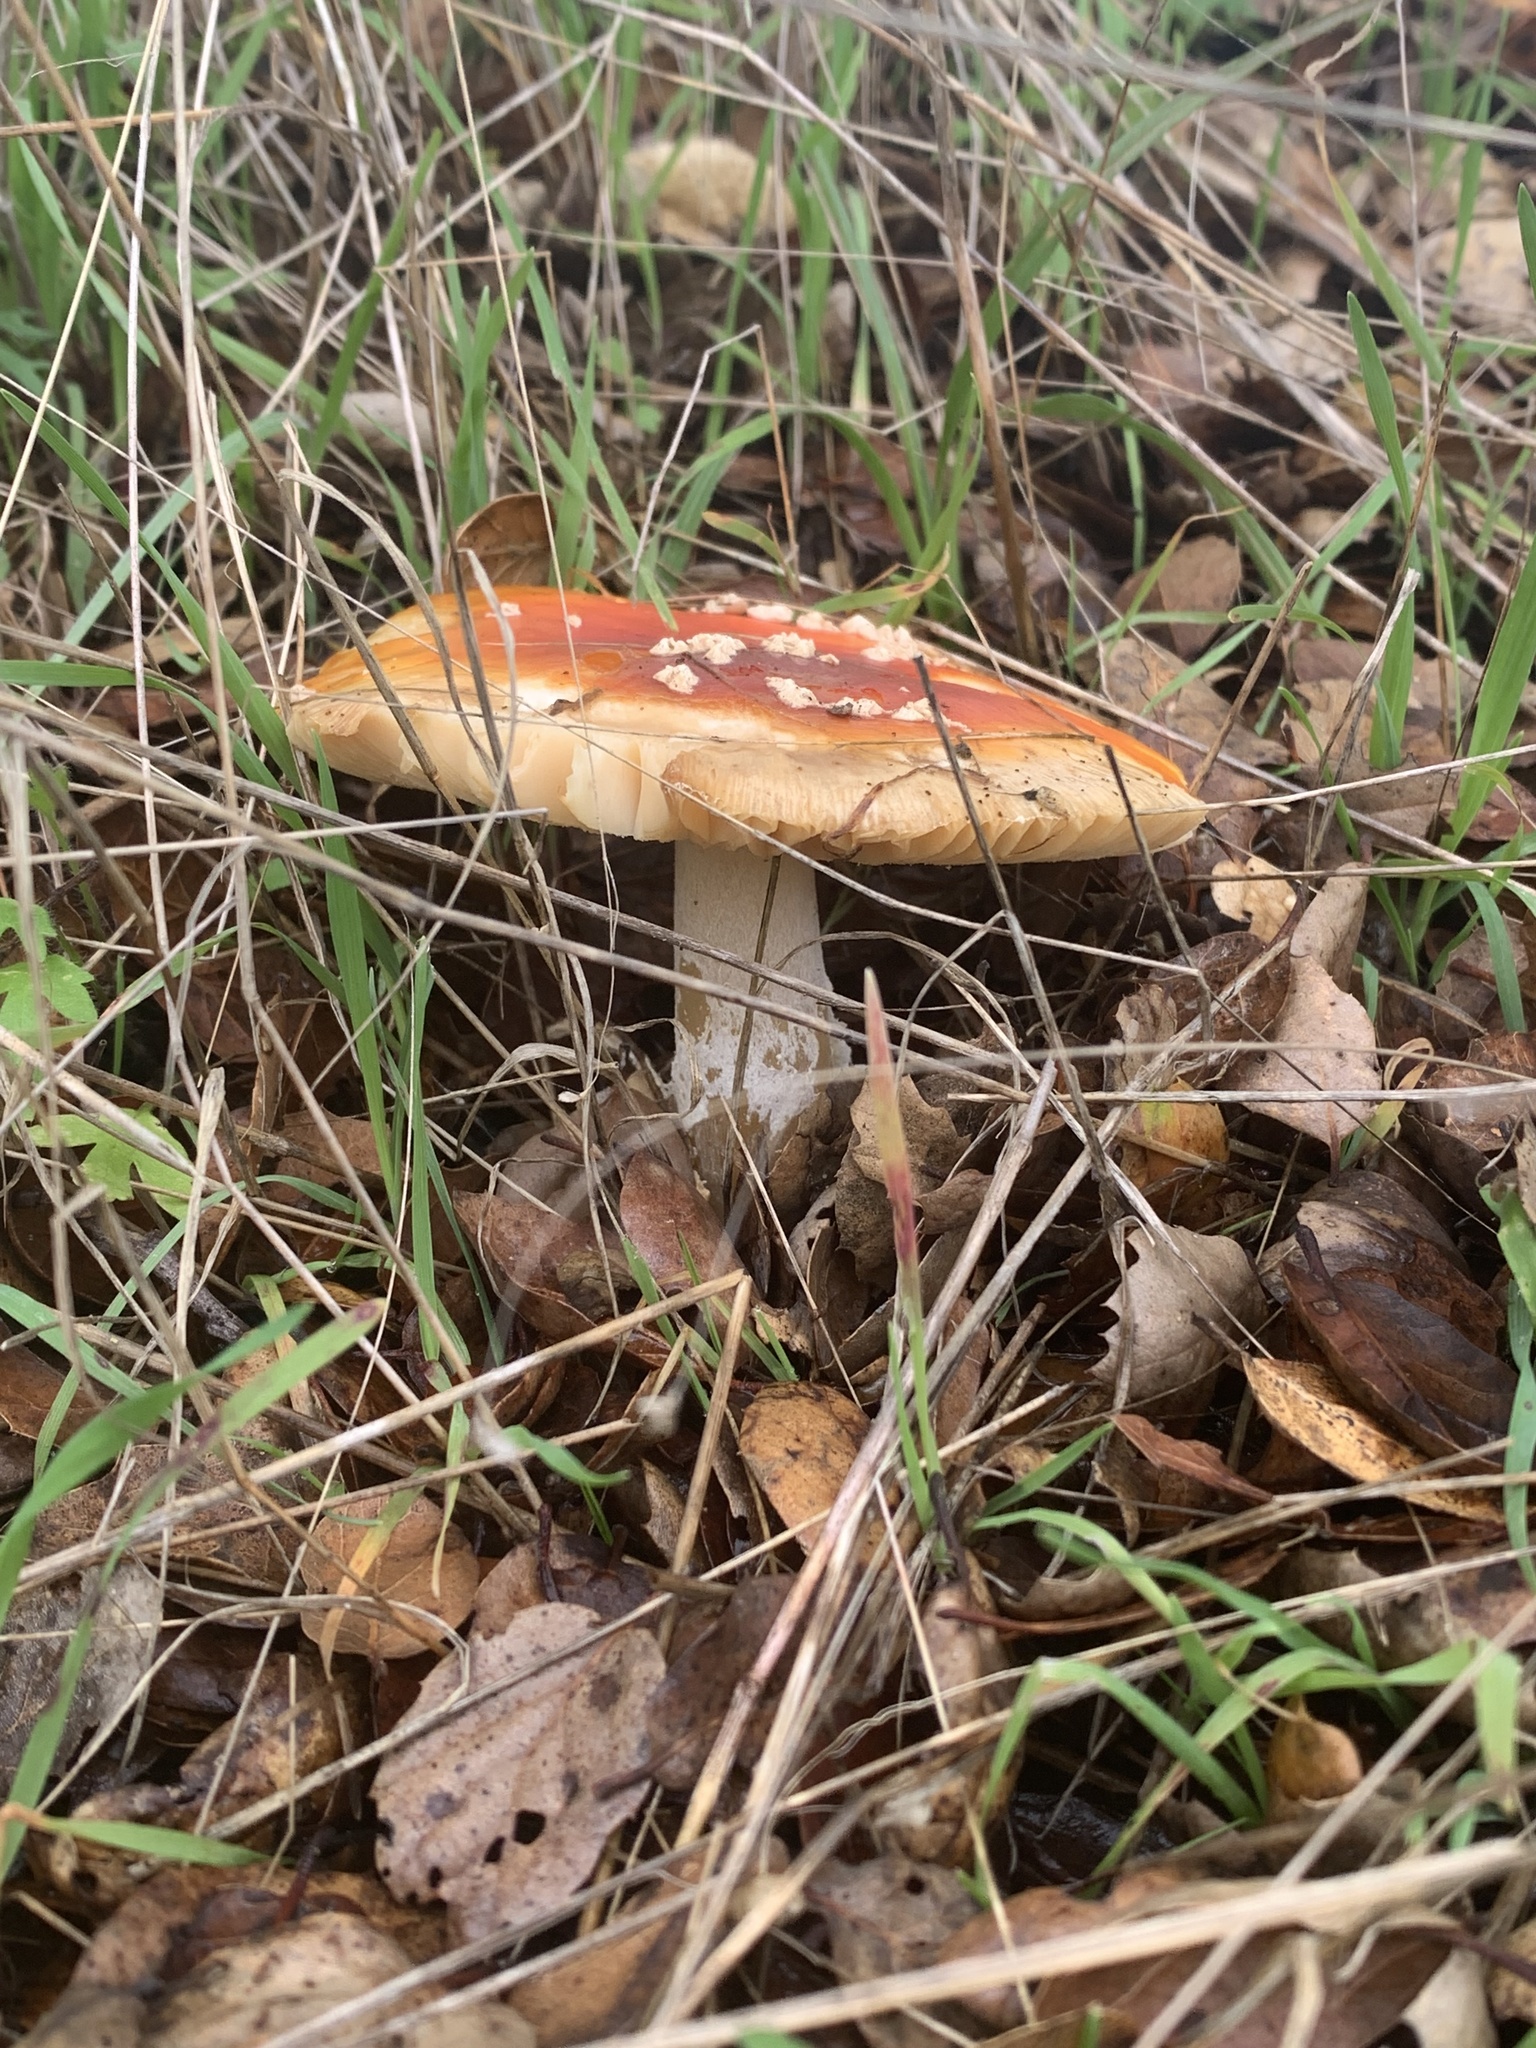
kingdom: Fungi
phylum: Basidiomycota
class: Agaricomycetes
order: Agaricales
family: Amanitaceae
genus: Amanita
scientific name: Amanita muscaria
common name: Fly agaric
